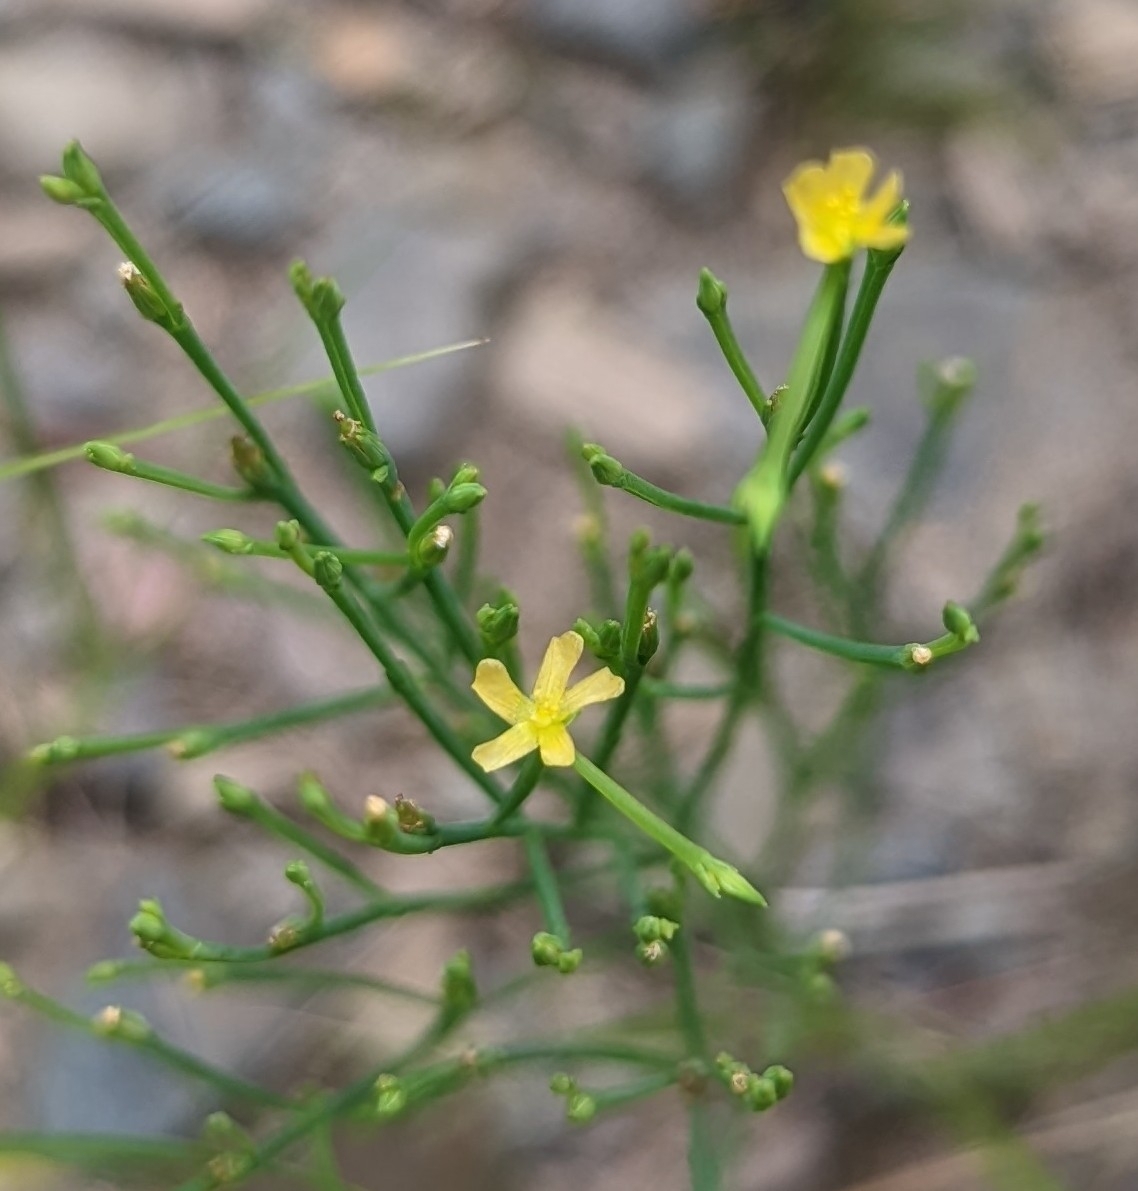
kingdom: Plantae
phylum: Tracheophyta
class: Magnoliopsida
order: Malpighiales
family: Hypericaceae
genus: Hypericum
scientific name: Hypericum gentianoides
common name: Gentian-leaved st. john's-wort
